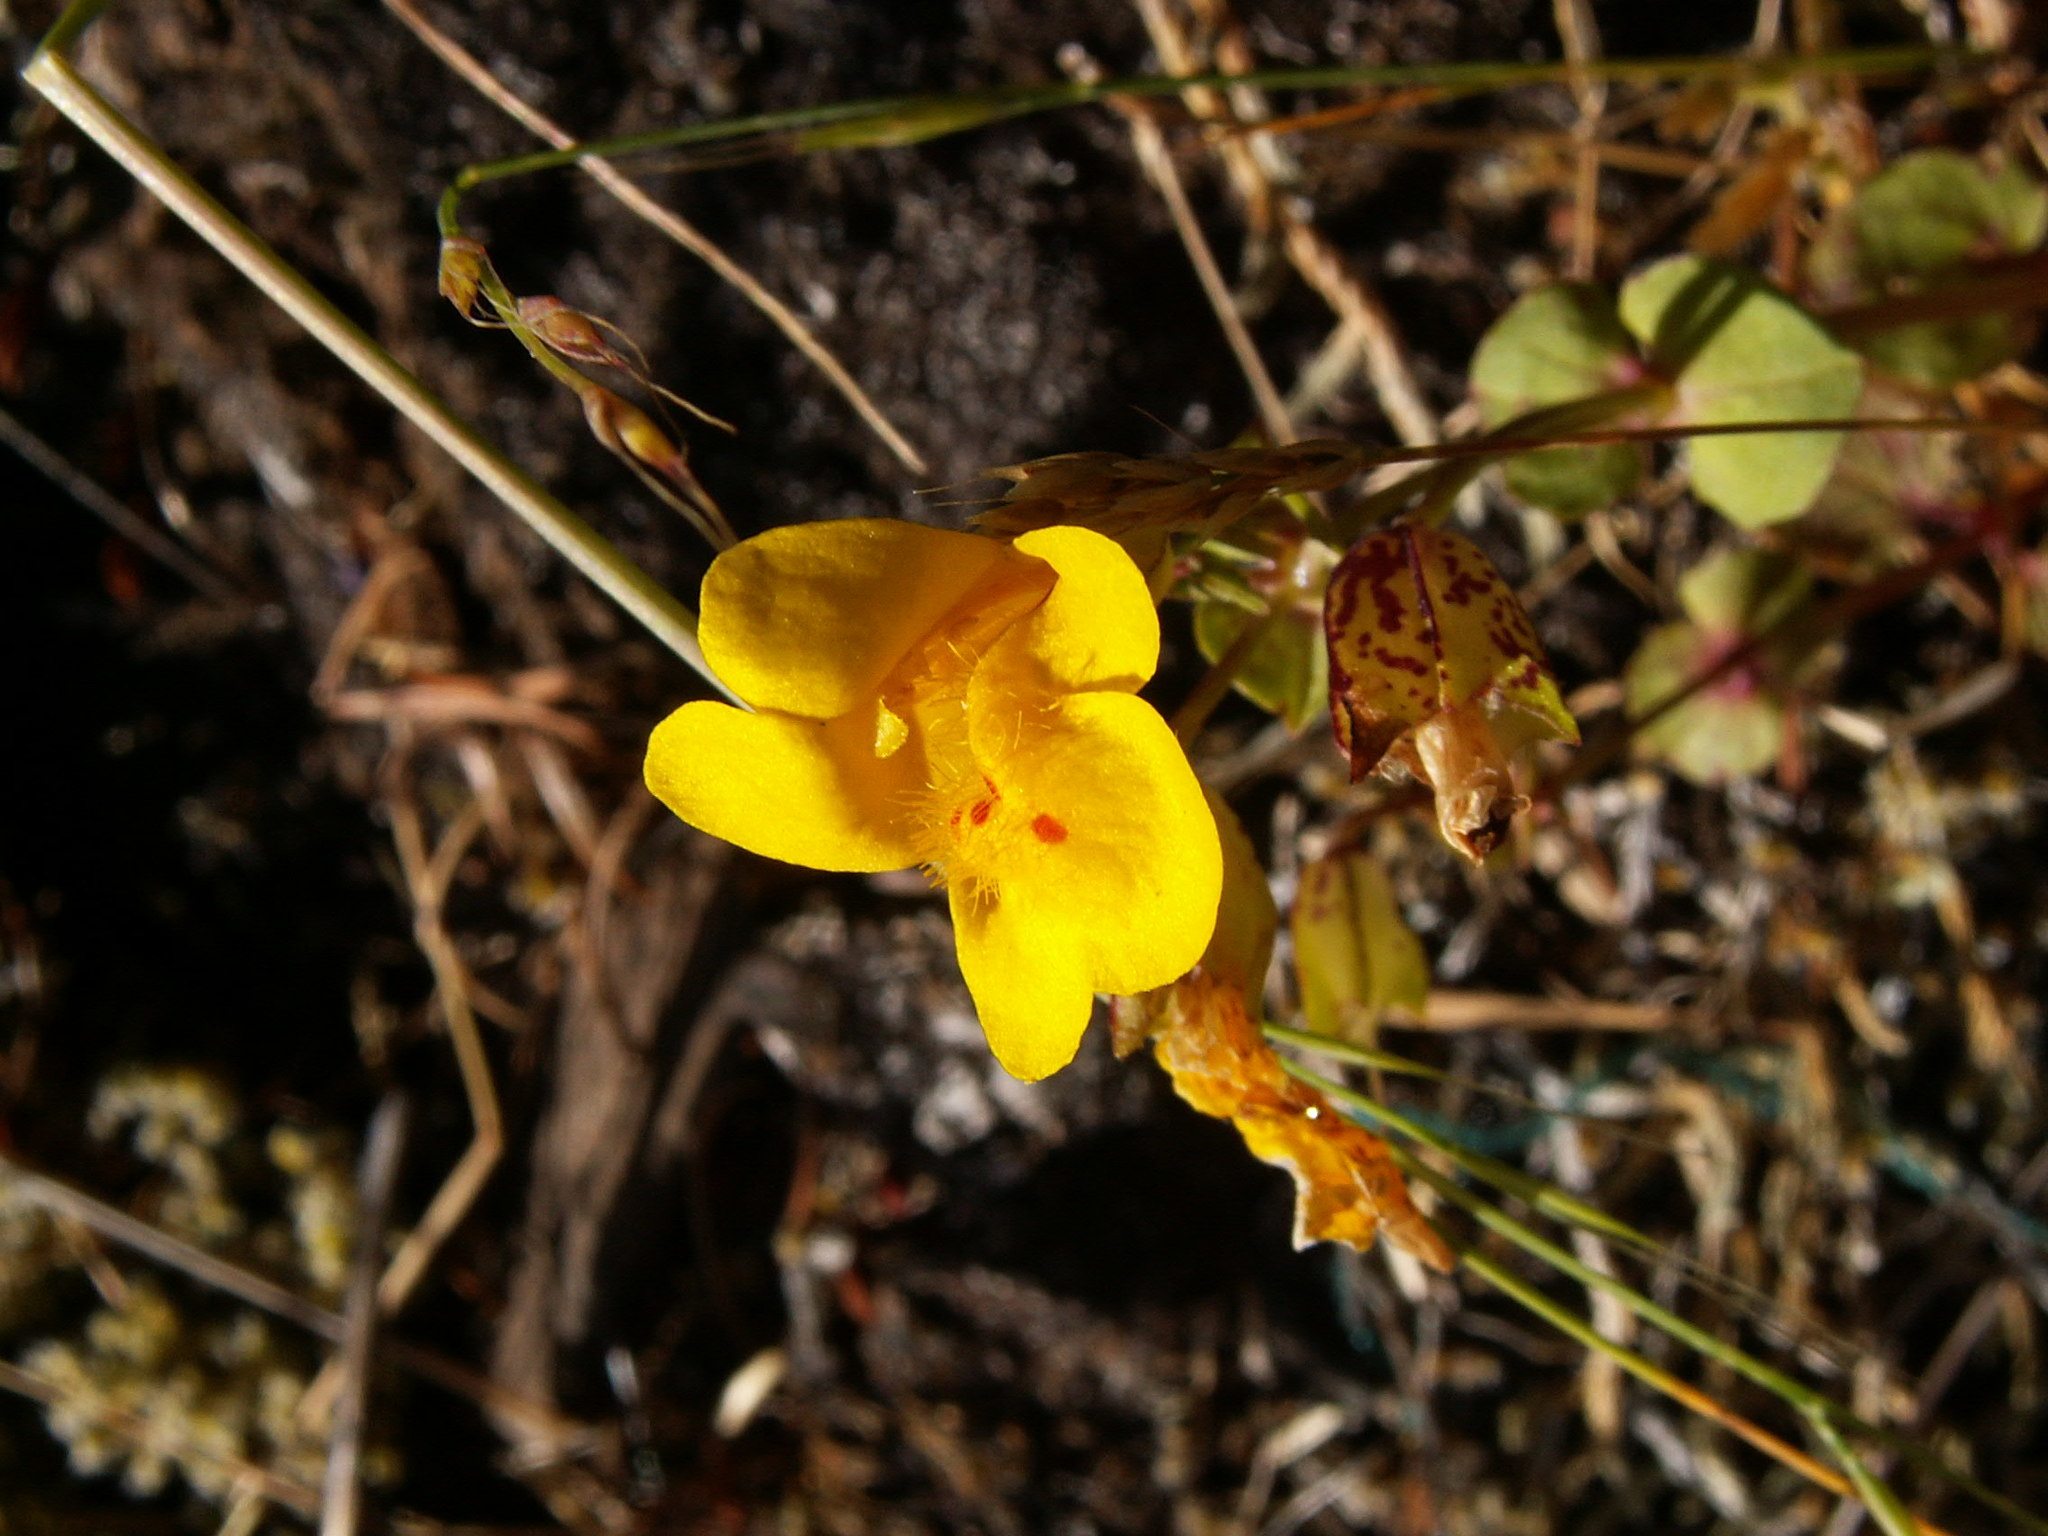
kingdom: Plantae
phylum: Tracheophyta
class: Magnoliopsida
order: Lamiales
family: Phrymaceae
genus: Erythranthe
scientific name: Erythranthe guttata
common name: Monkeyflower
